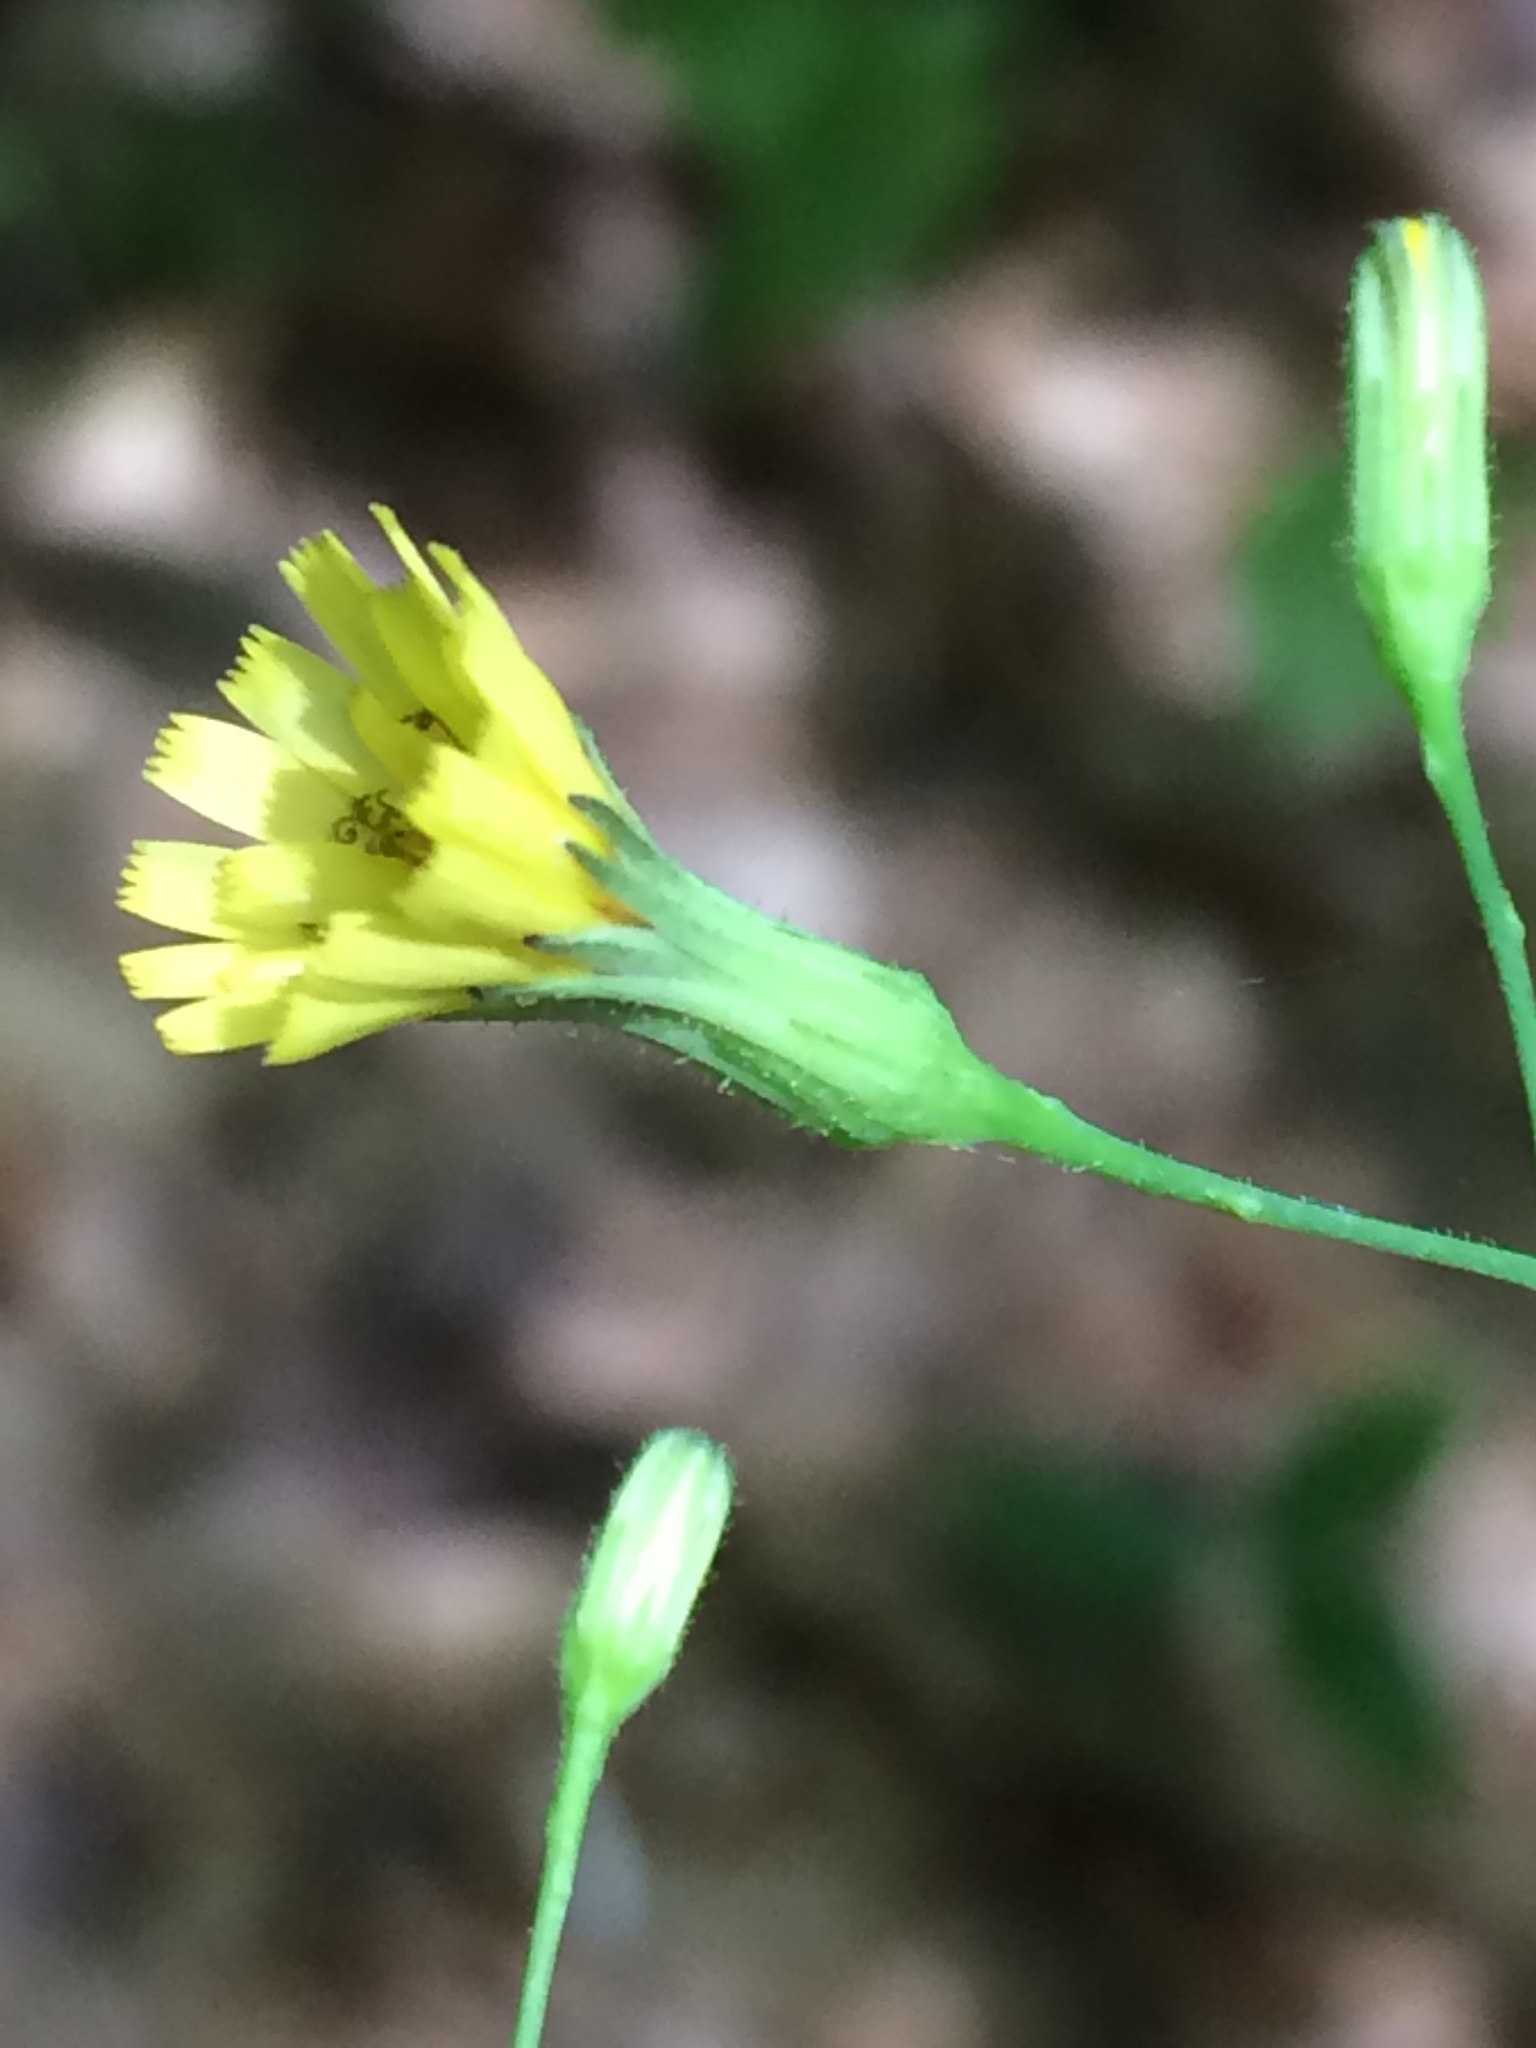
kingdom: Plantae
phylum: Tracheophyta
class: Magnoliopsida
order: Asterales
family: Asteraceae
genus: Hieracium
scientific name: Hieracium paniculatum
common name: Allegheny hawkweed
